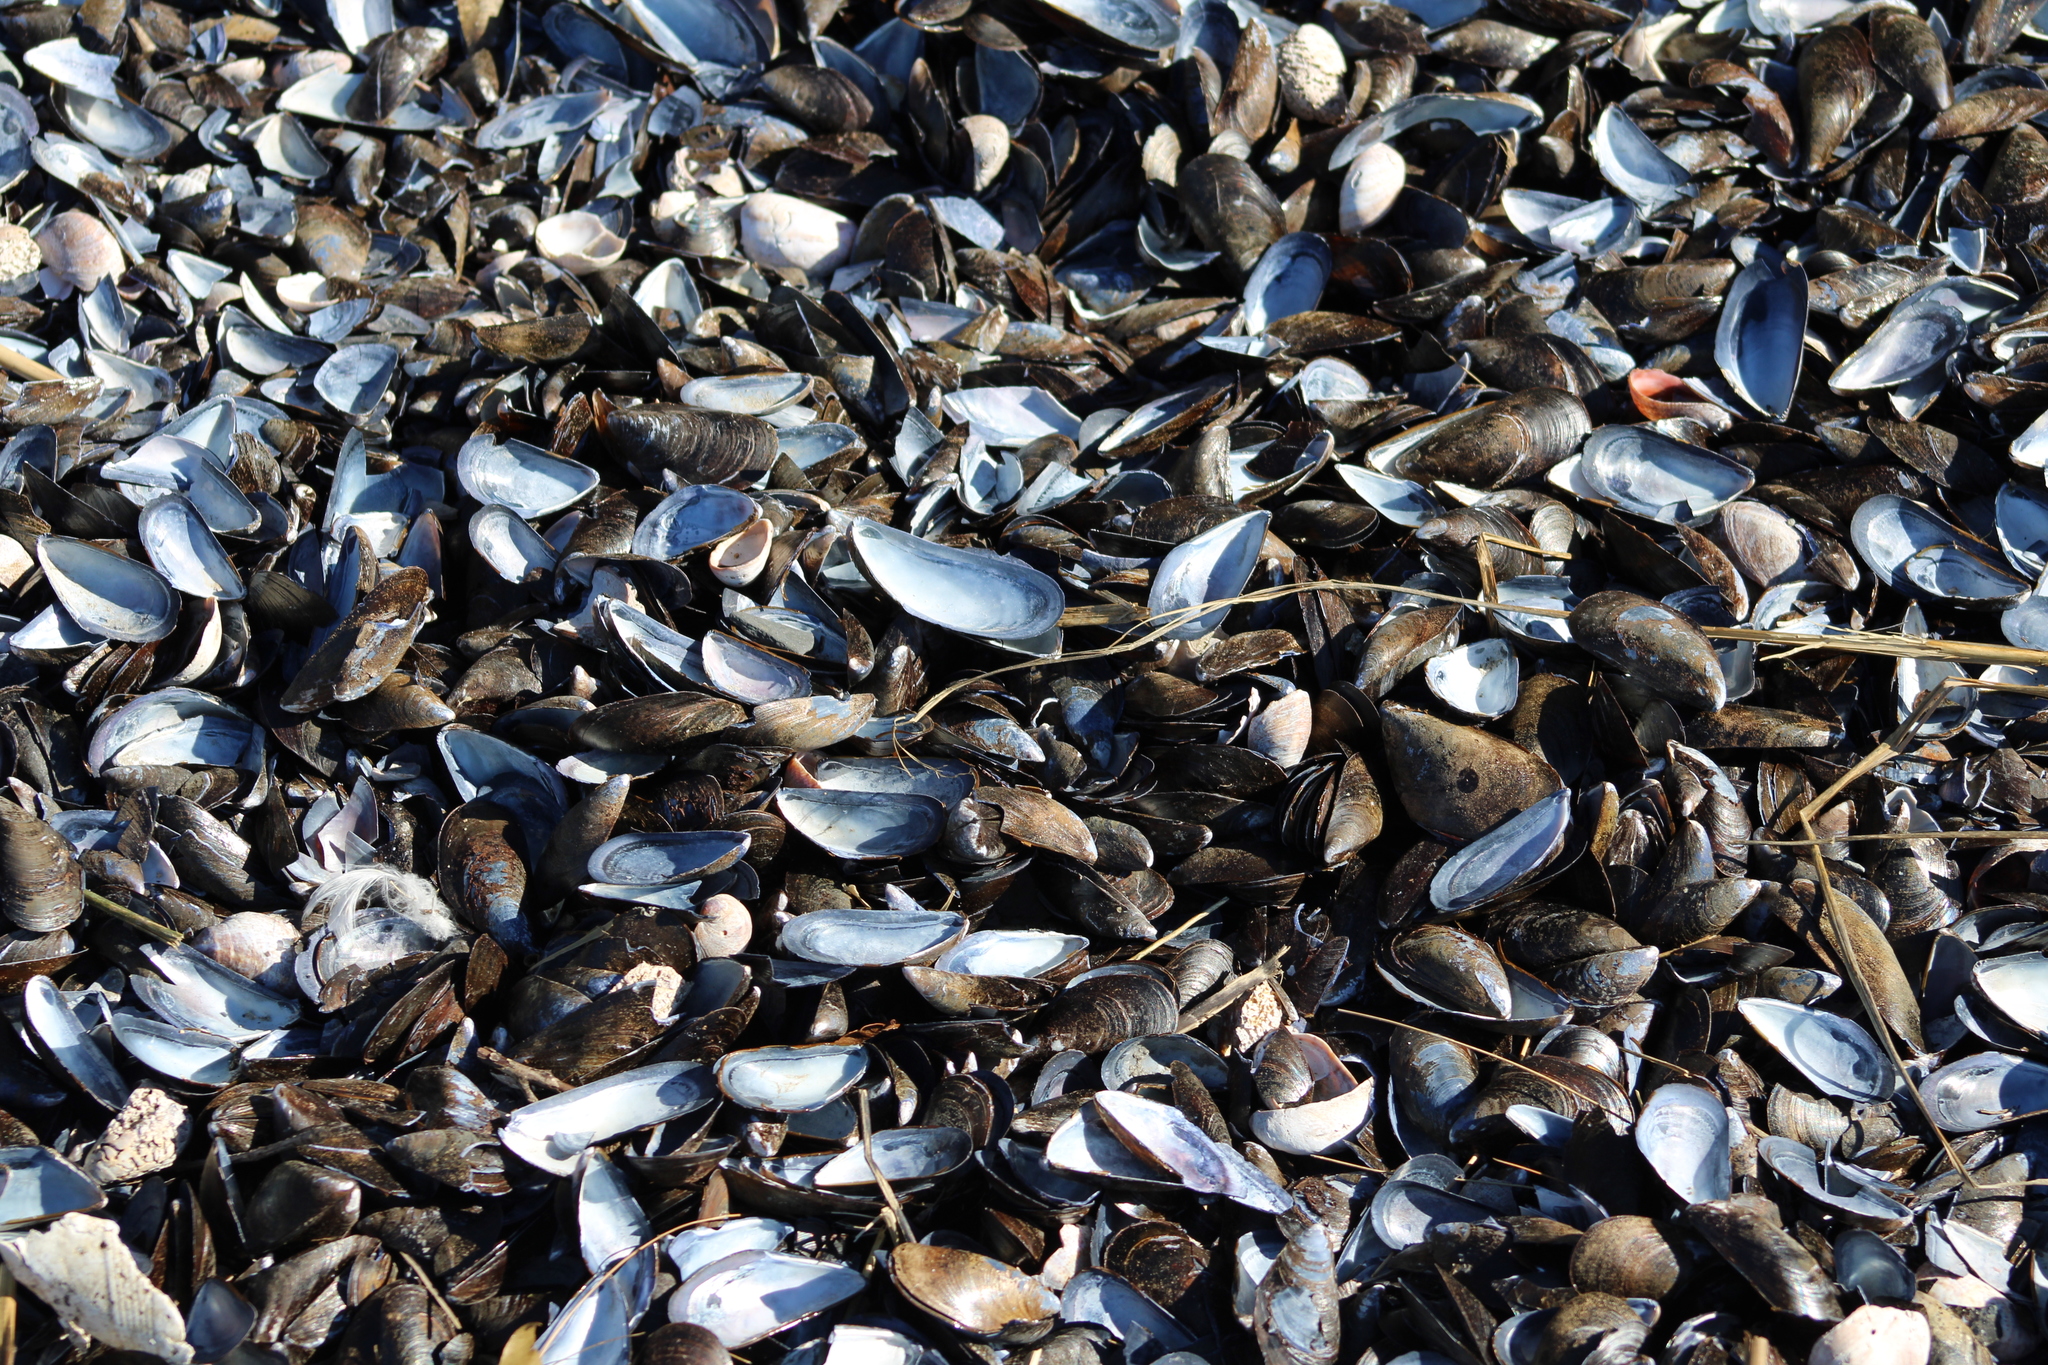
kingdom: Animalia
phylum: Mollusca
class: Bivalvia
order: Mytilida
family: Mytilidae
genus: Mytilus
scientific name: Mytilus edulis
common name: Blue mussel
